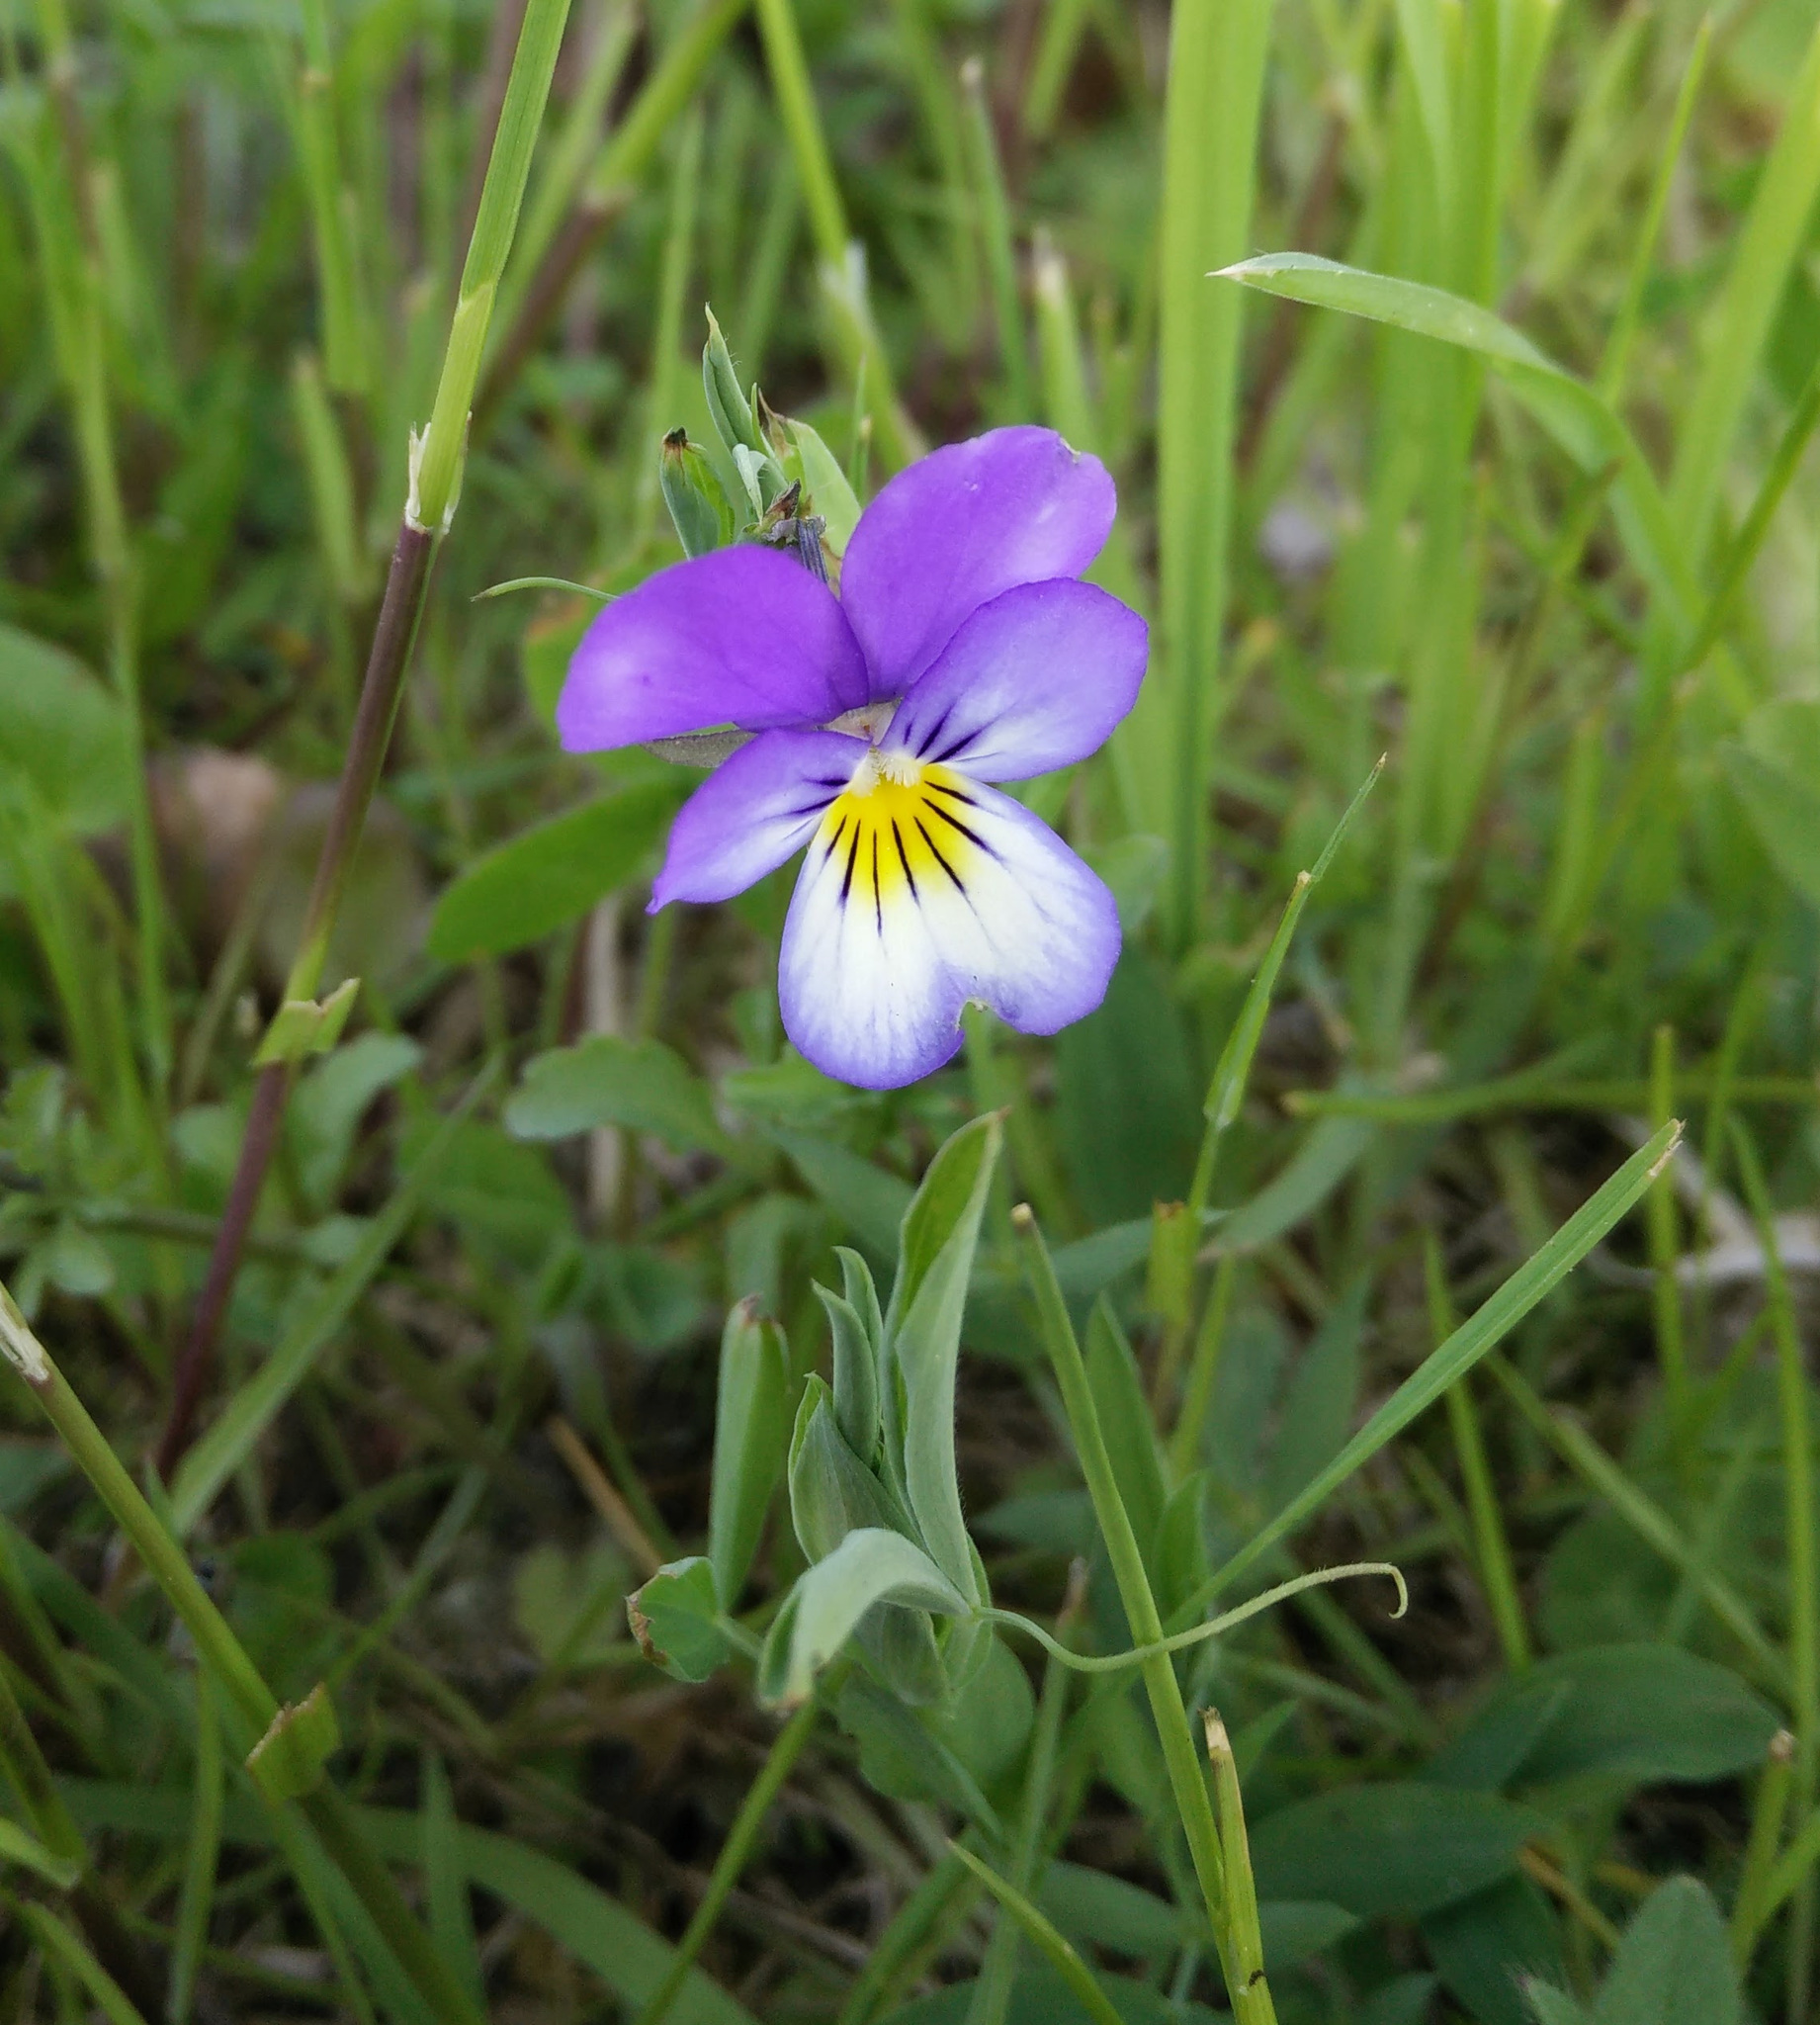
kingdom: Plantae
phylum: Tracheophyta
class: Magnoliopsida
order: Malpighiales
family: Violaceae
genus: Viola
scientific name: Viola tricolor
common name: Pansy
